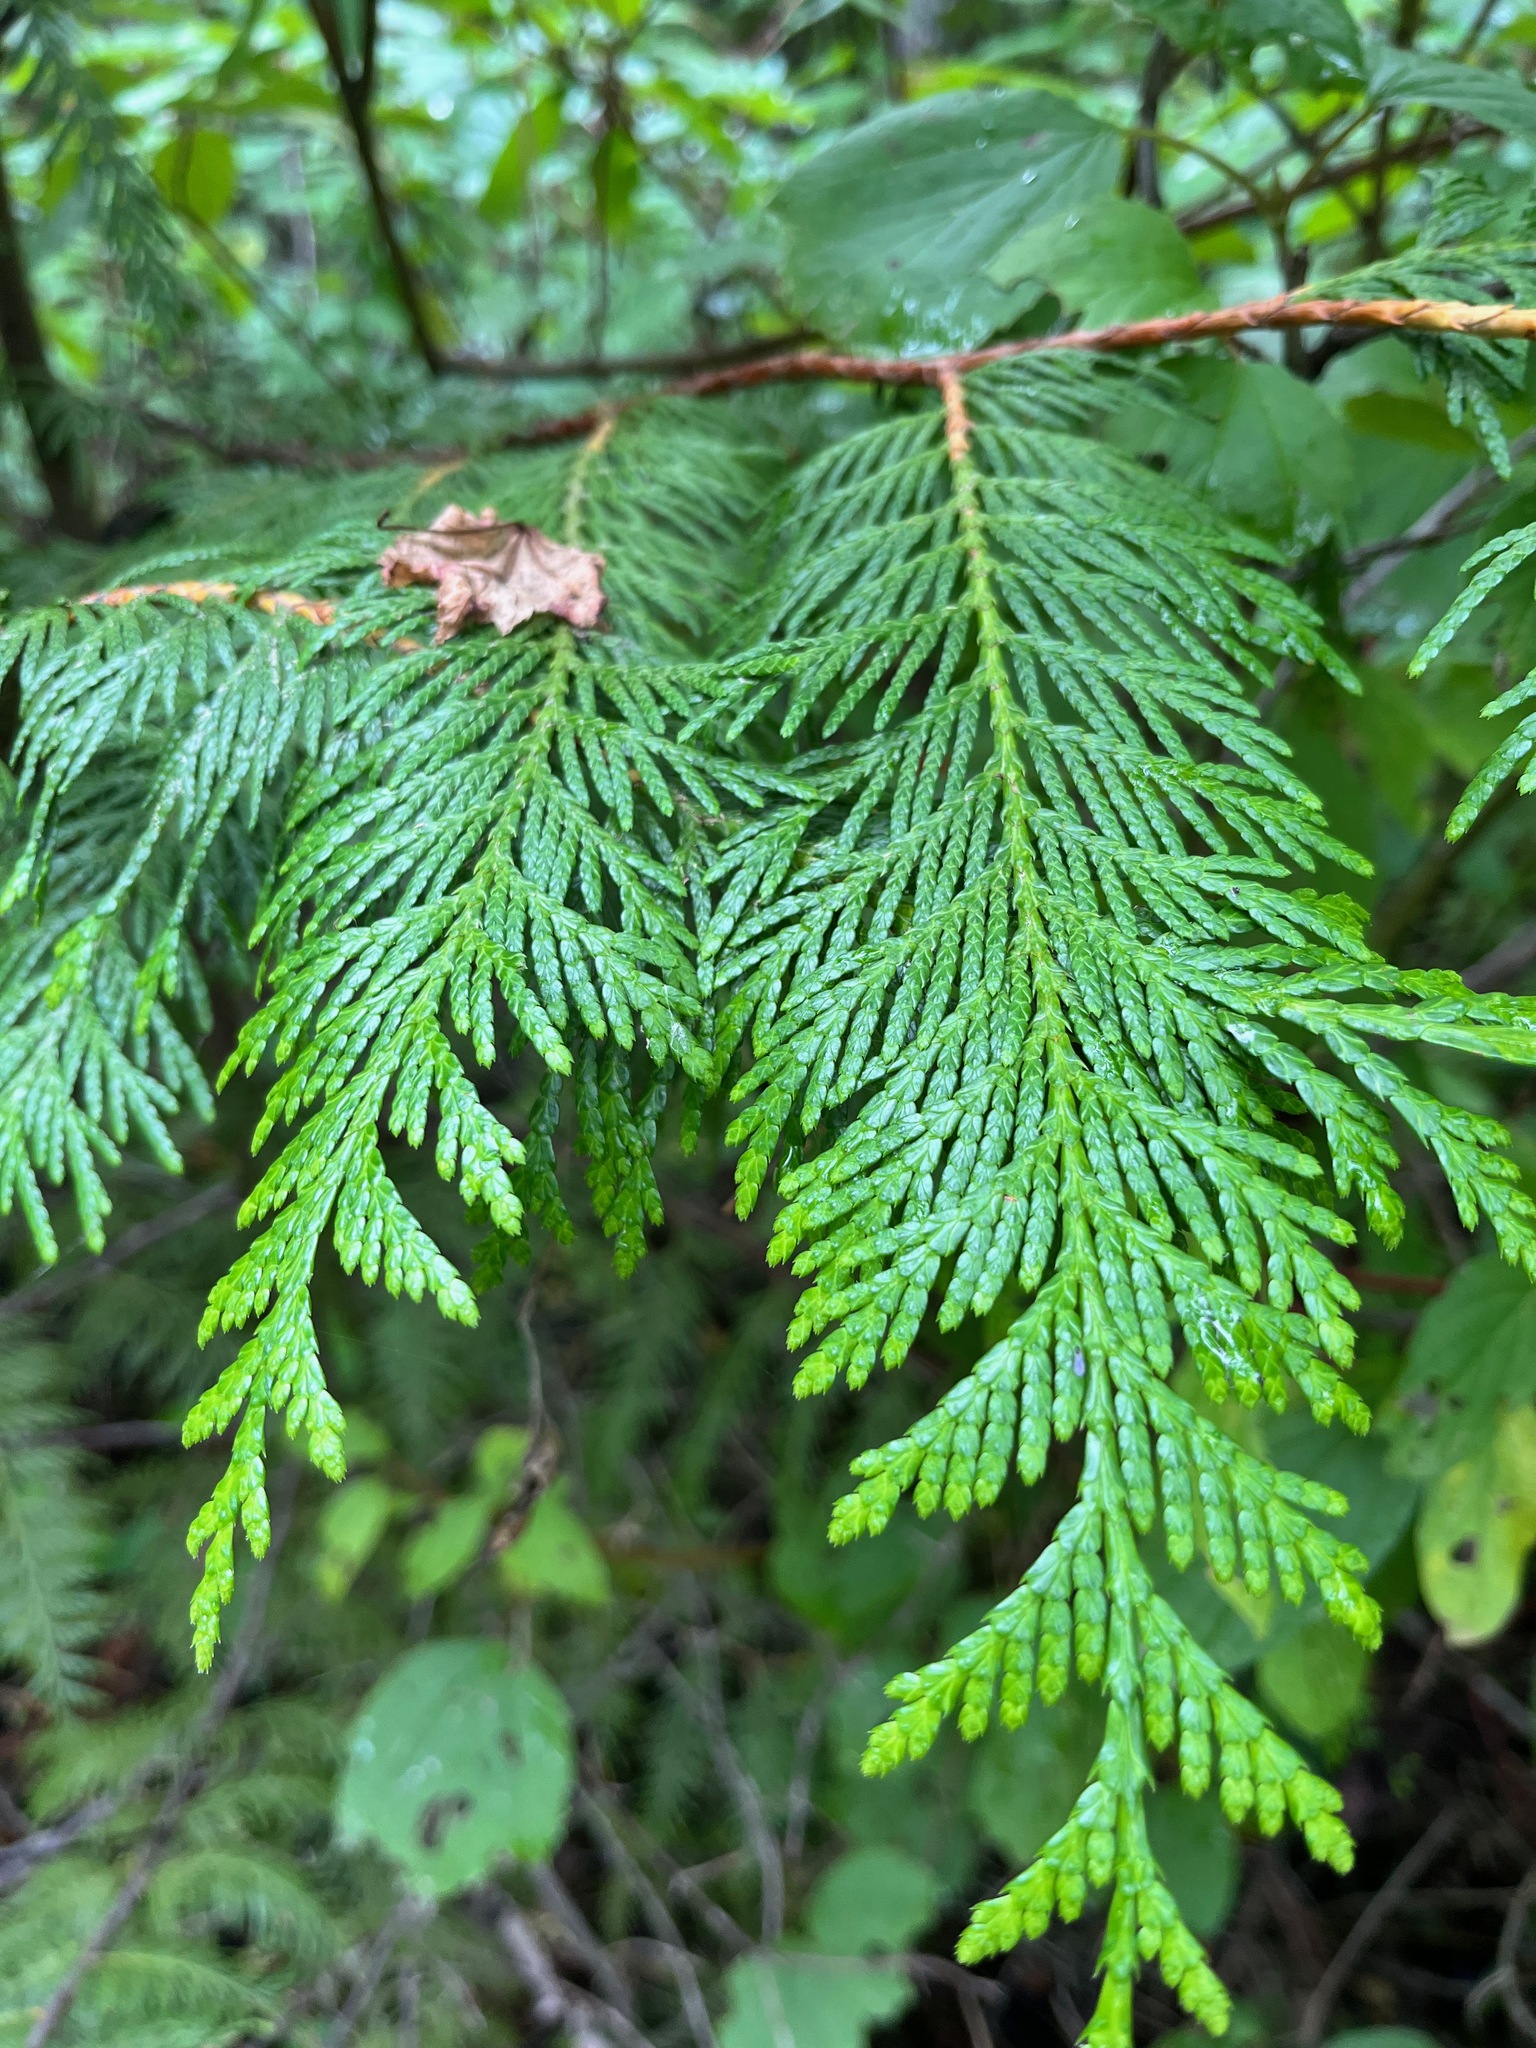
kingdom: Plantae
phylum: Tracheophyta
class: Pinopsida
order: Pinales
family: Cupressaceae
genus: Thuja
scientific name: Thuja plicata
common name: Western red-cedar
